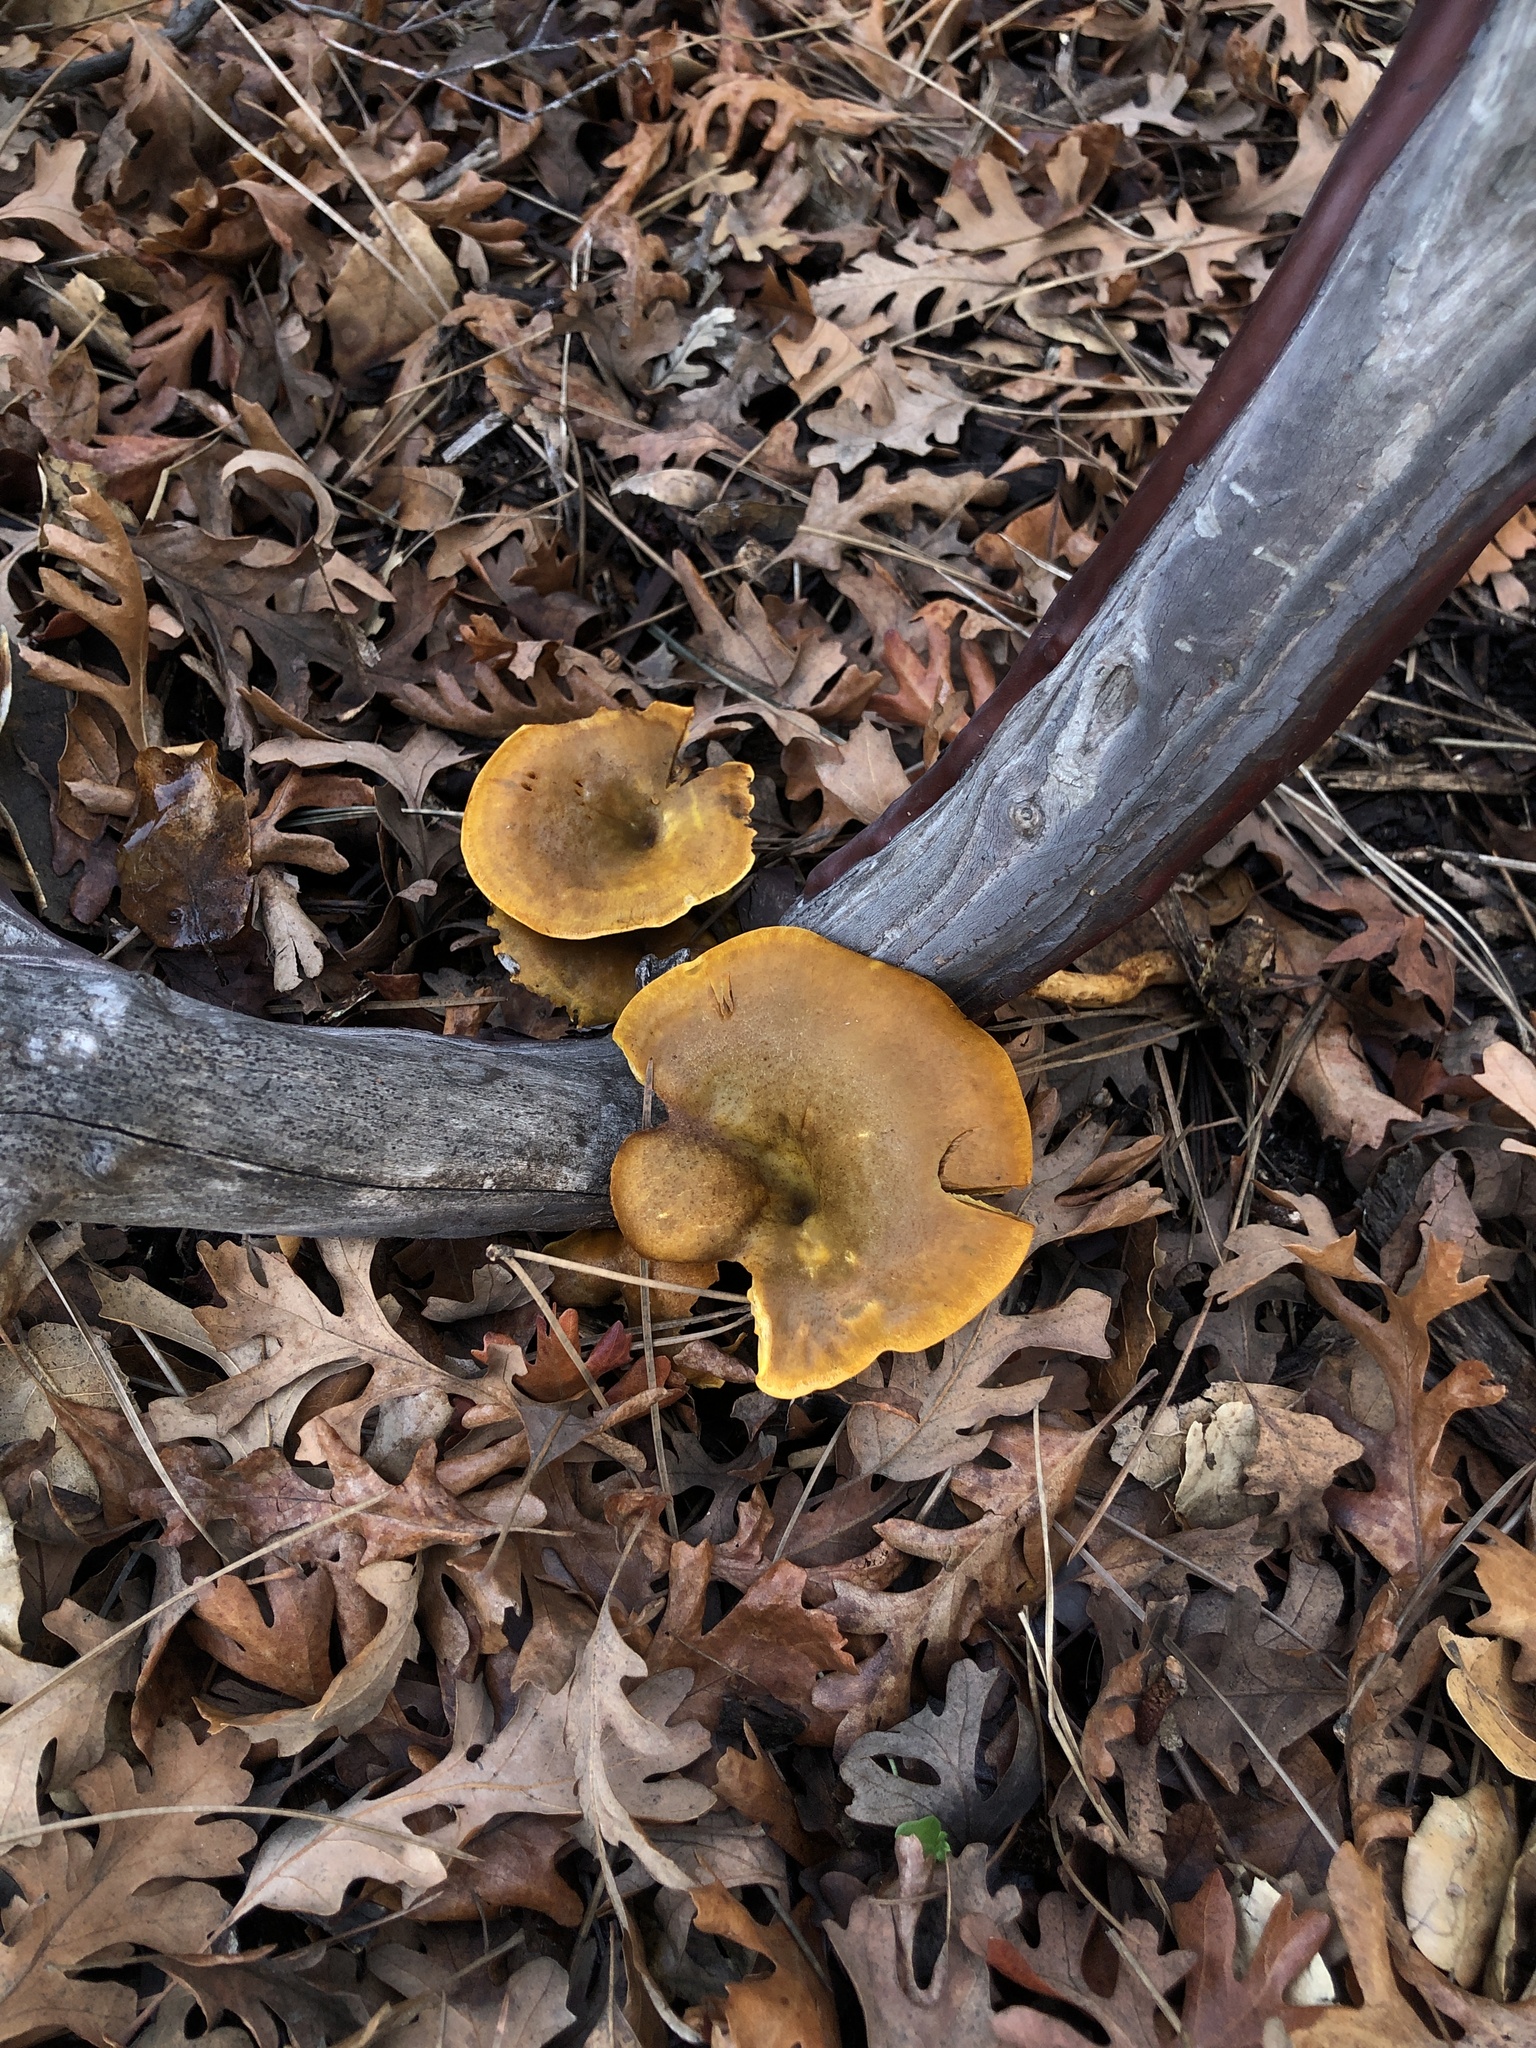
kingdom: Fungi
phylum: Basidiomycota
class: Agaricomycetes
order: Agaricales
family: Omphalotaceae
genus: Omphalotus
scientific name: Omphalotus olivascens
